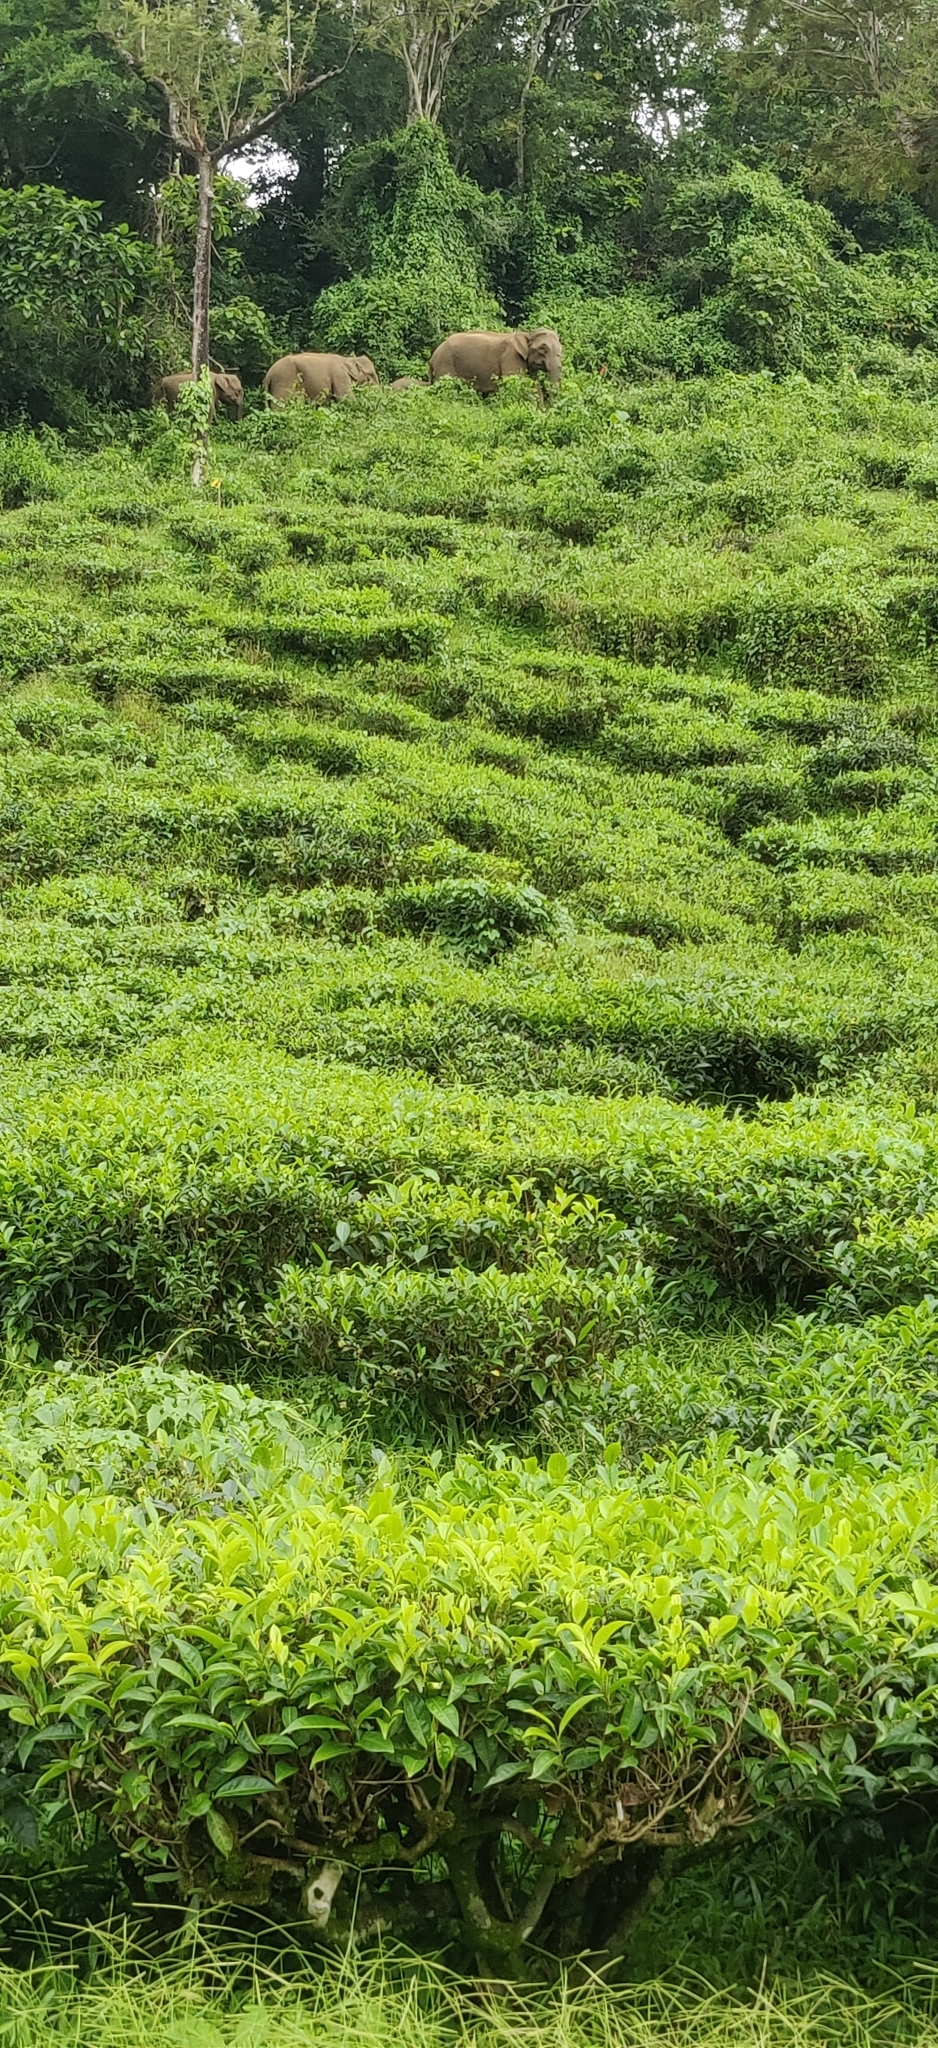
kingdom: Animalia
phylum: Chordata
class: Mammalia
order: Proboscidea
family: Elephantidae
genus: Elephas
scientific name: Elephas maximus
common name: Asian elephant
